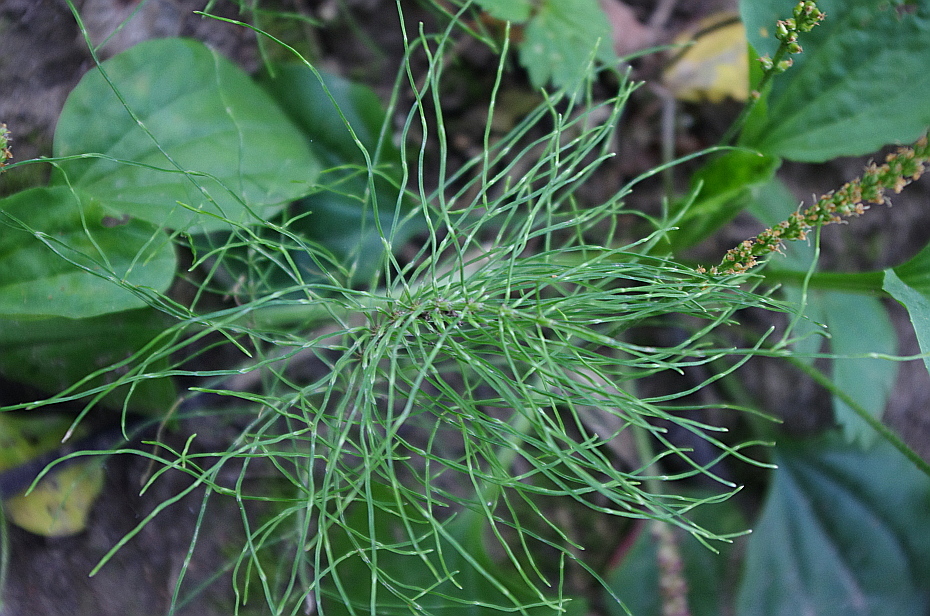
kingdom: Plantae
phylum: Tracheophyta
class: Polypodiopsida
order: Equisetales
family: Equisetaceae
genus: Equisetum
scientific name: Equisetum arvense
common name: Field horsetail
